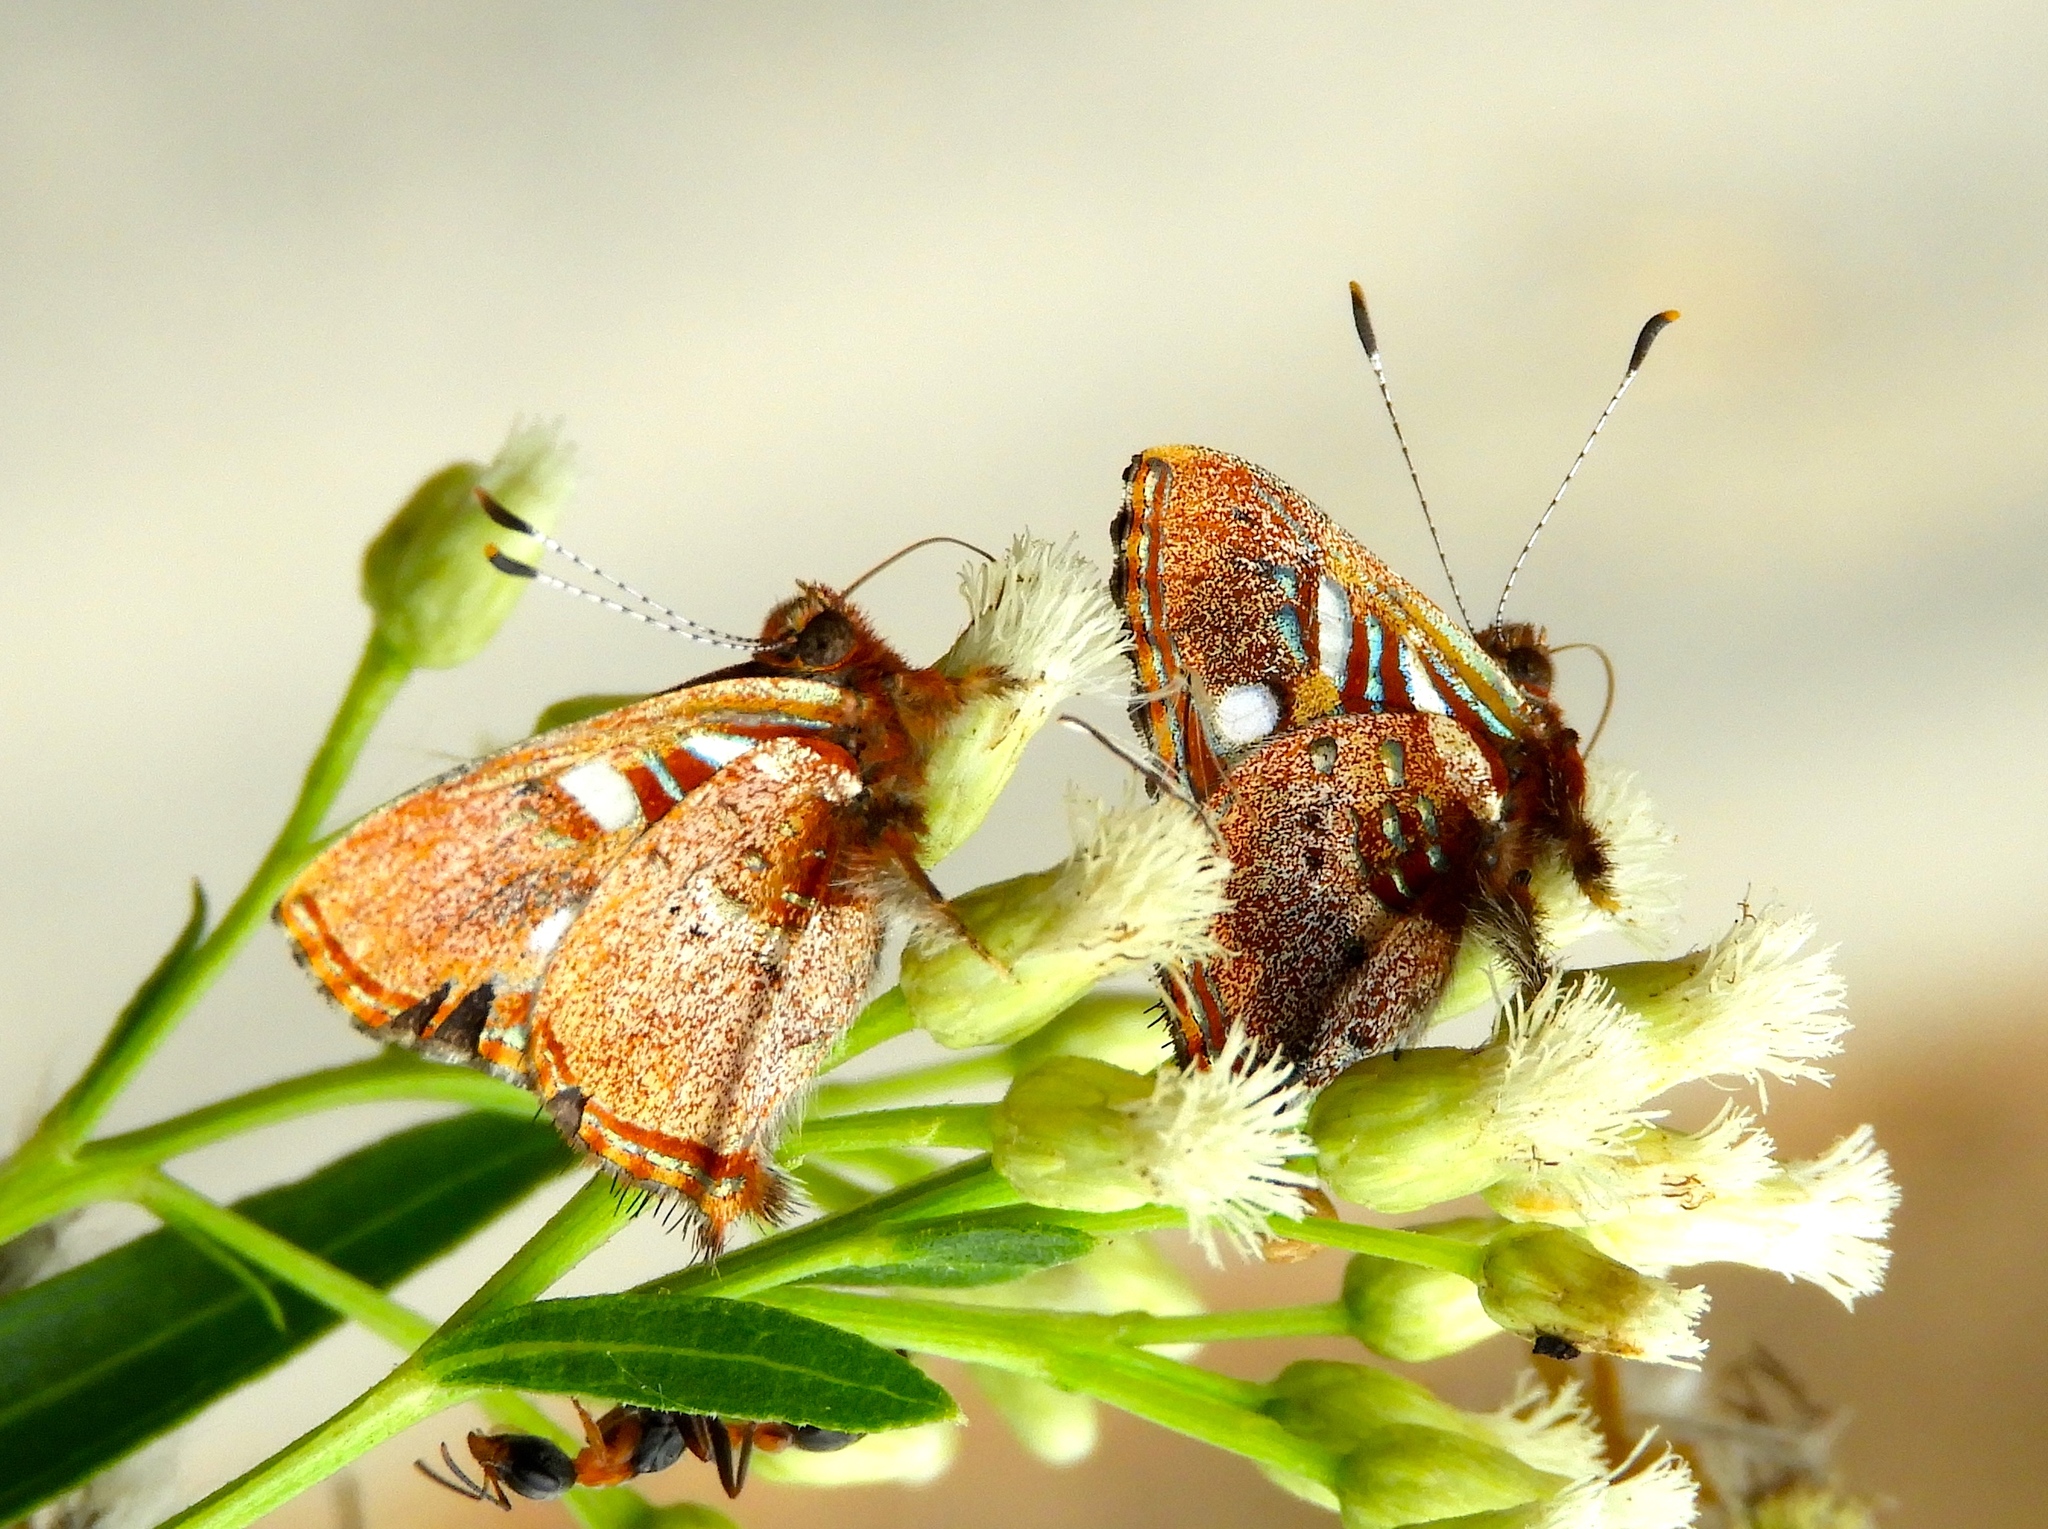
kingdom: Animalia
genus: Anteros
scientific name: Anteros carausius
